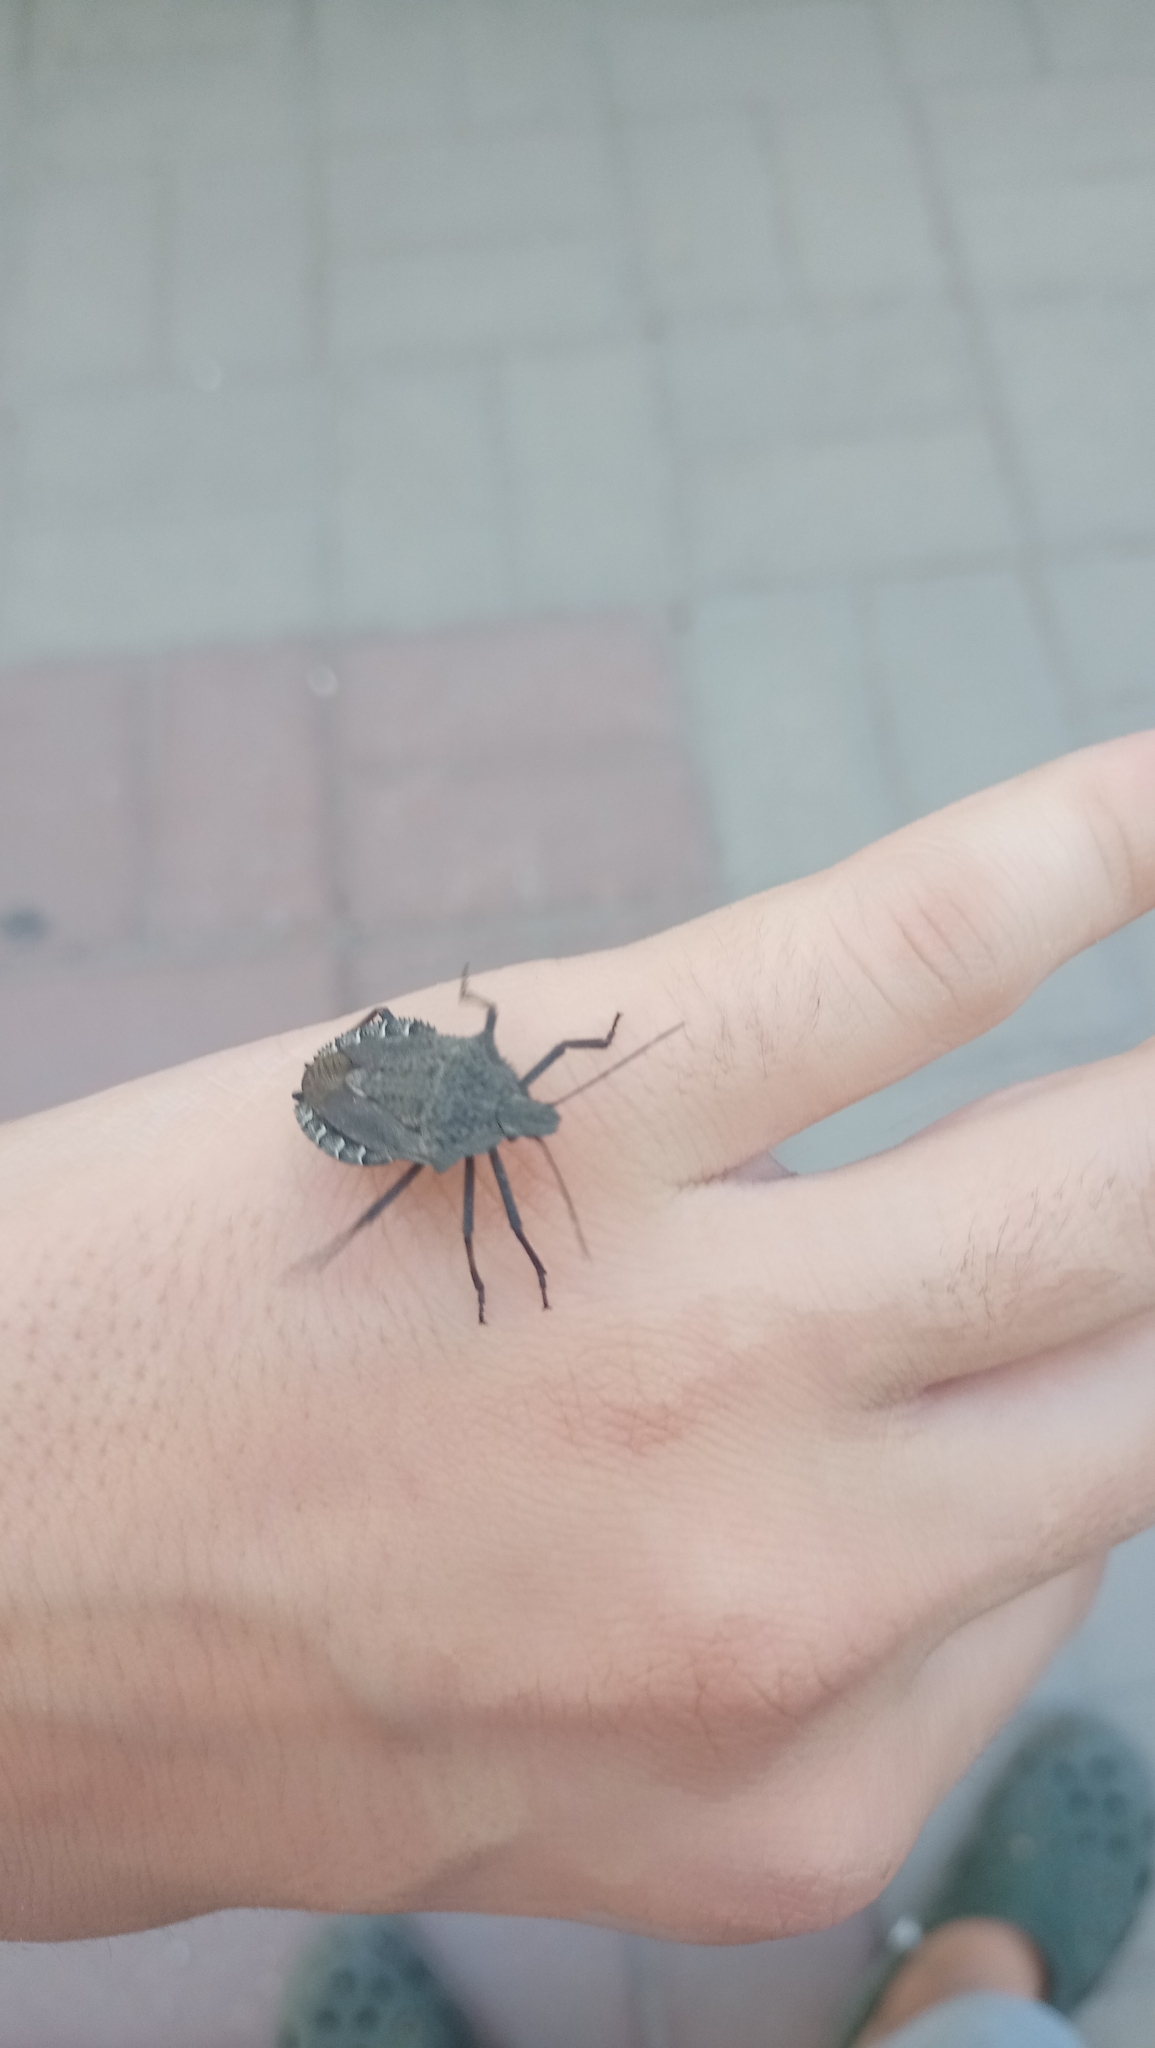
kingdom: Animalia
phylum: Arthropoda
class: Insecta
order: Hemiptera
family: Pentatomidae
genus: Mustha
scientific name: Mustha spinosula
